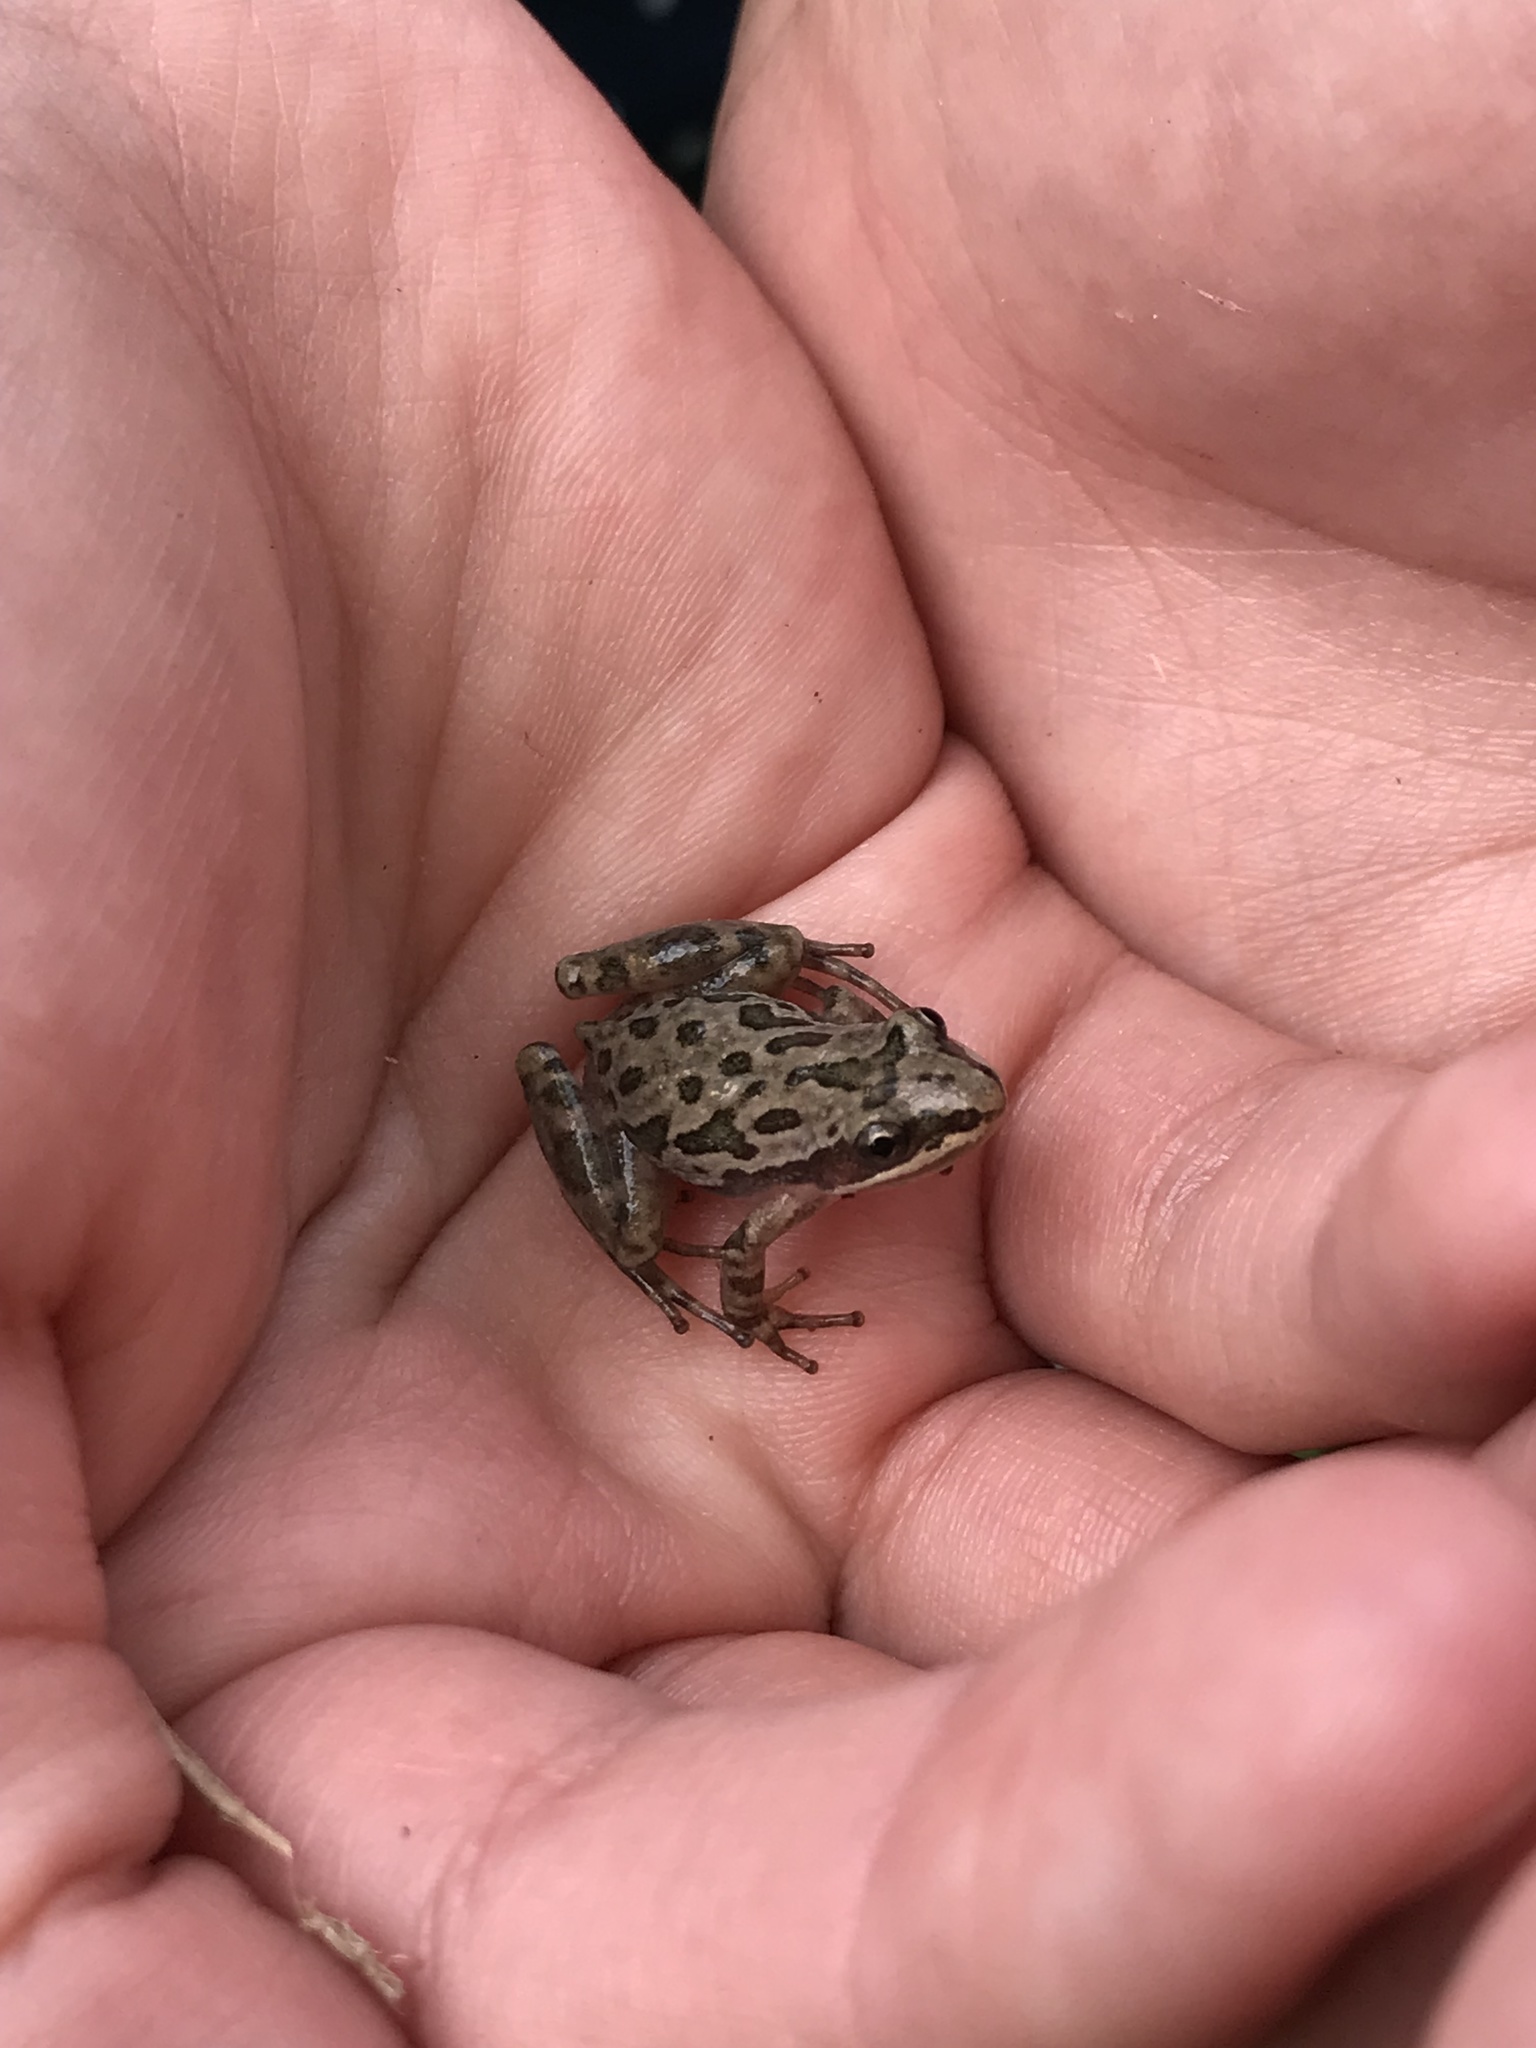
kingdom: Animalia
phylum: Chordata
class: Amphibia
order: Anura
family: Hylidae
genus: Pseudacris
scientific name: Pseudacris clarkii
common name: Spotted chorus frog
